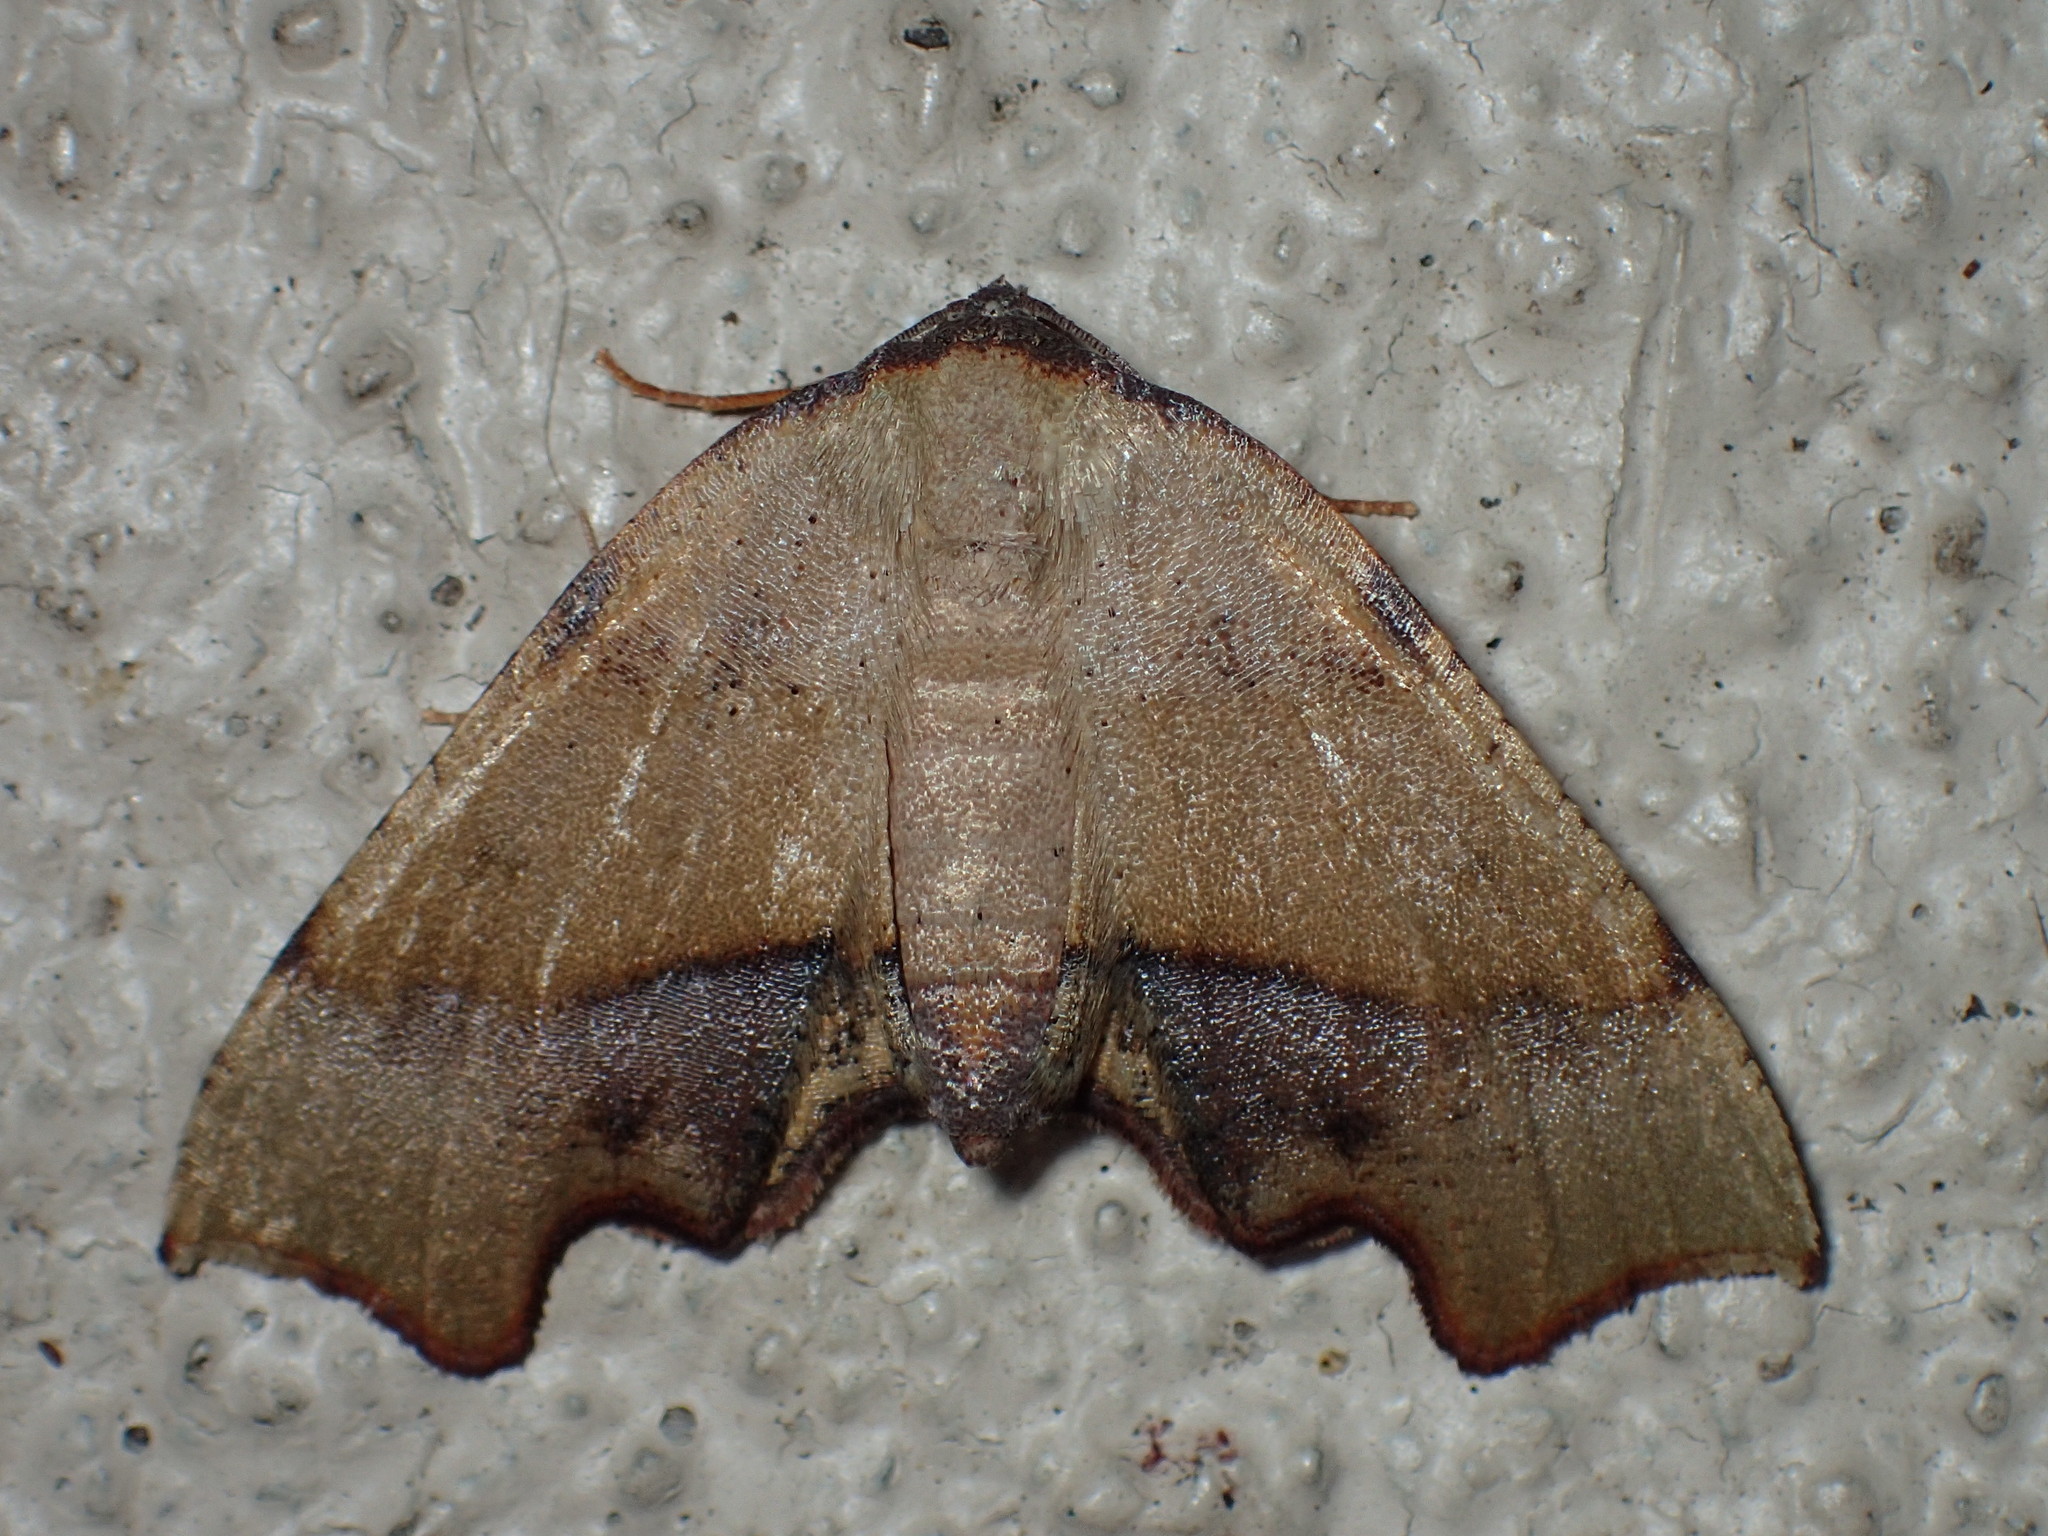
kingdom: Animalia
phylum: Arthropoda
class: Insecta
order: Lepidoptera
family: Geometridae
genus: Plagodis
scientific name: Plagodis fervidaria
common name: Fervid plagodis
